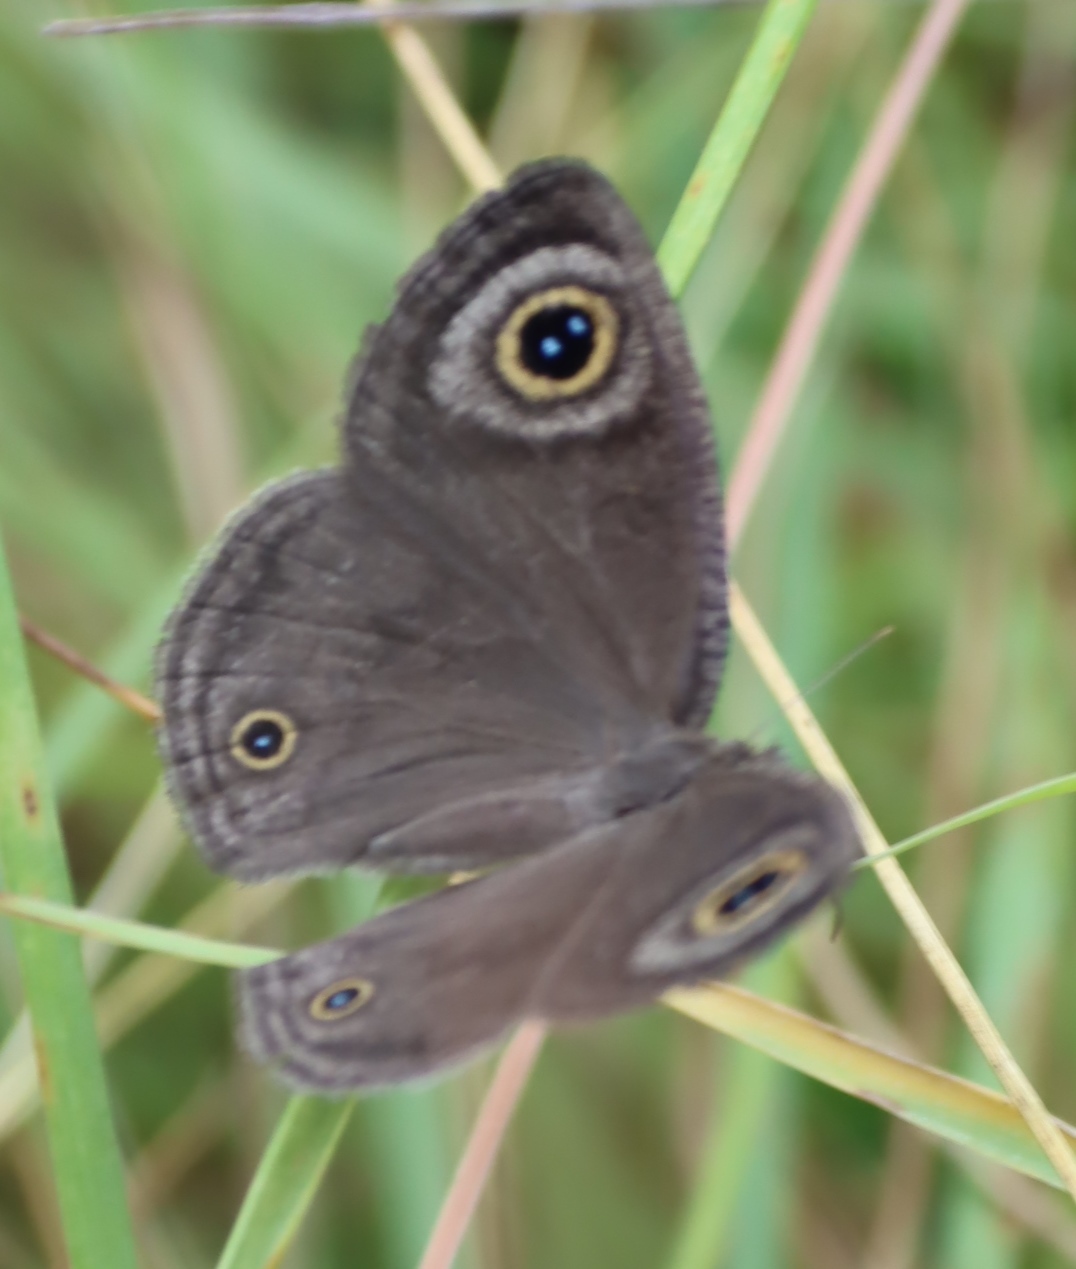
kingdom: Animalia
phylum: Arthropoda
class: Insecta
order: Lepidoptera
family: Nymphalidae
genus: Ypthima
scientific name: Ypthima impura
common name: Bushland ringlet
